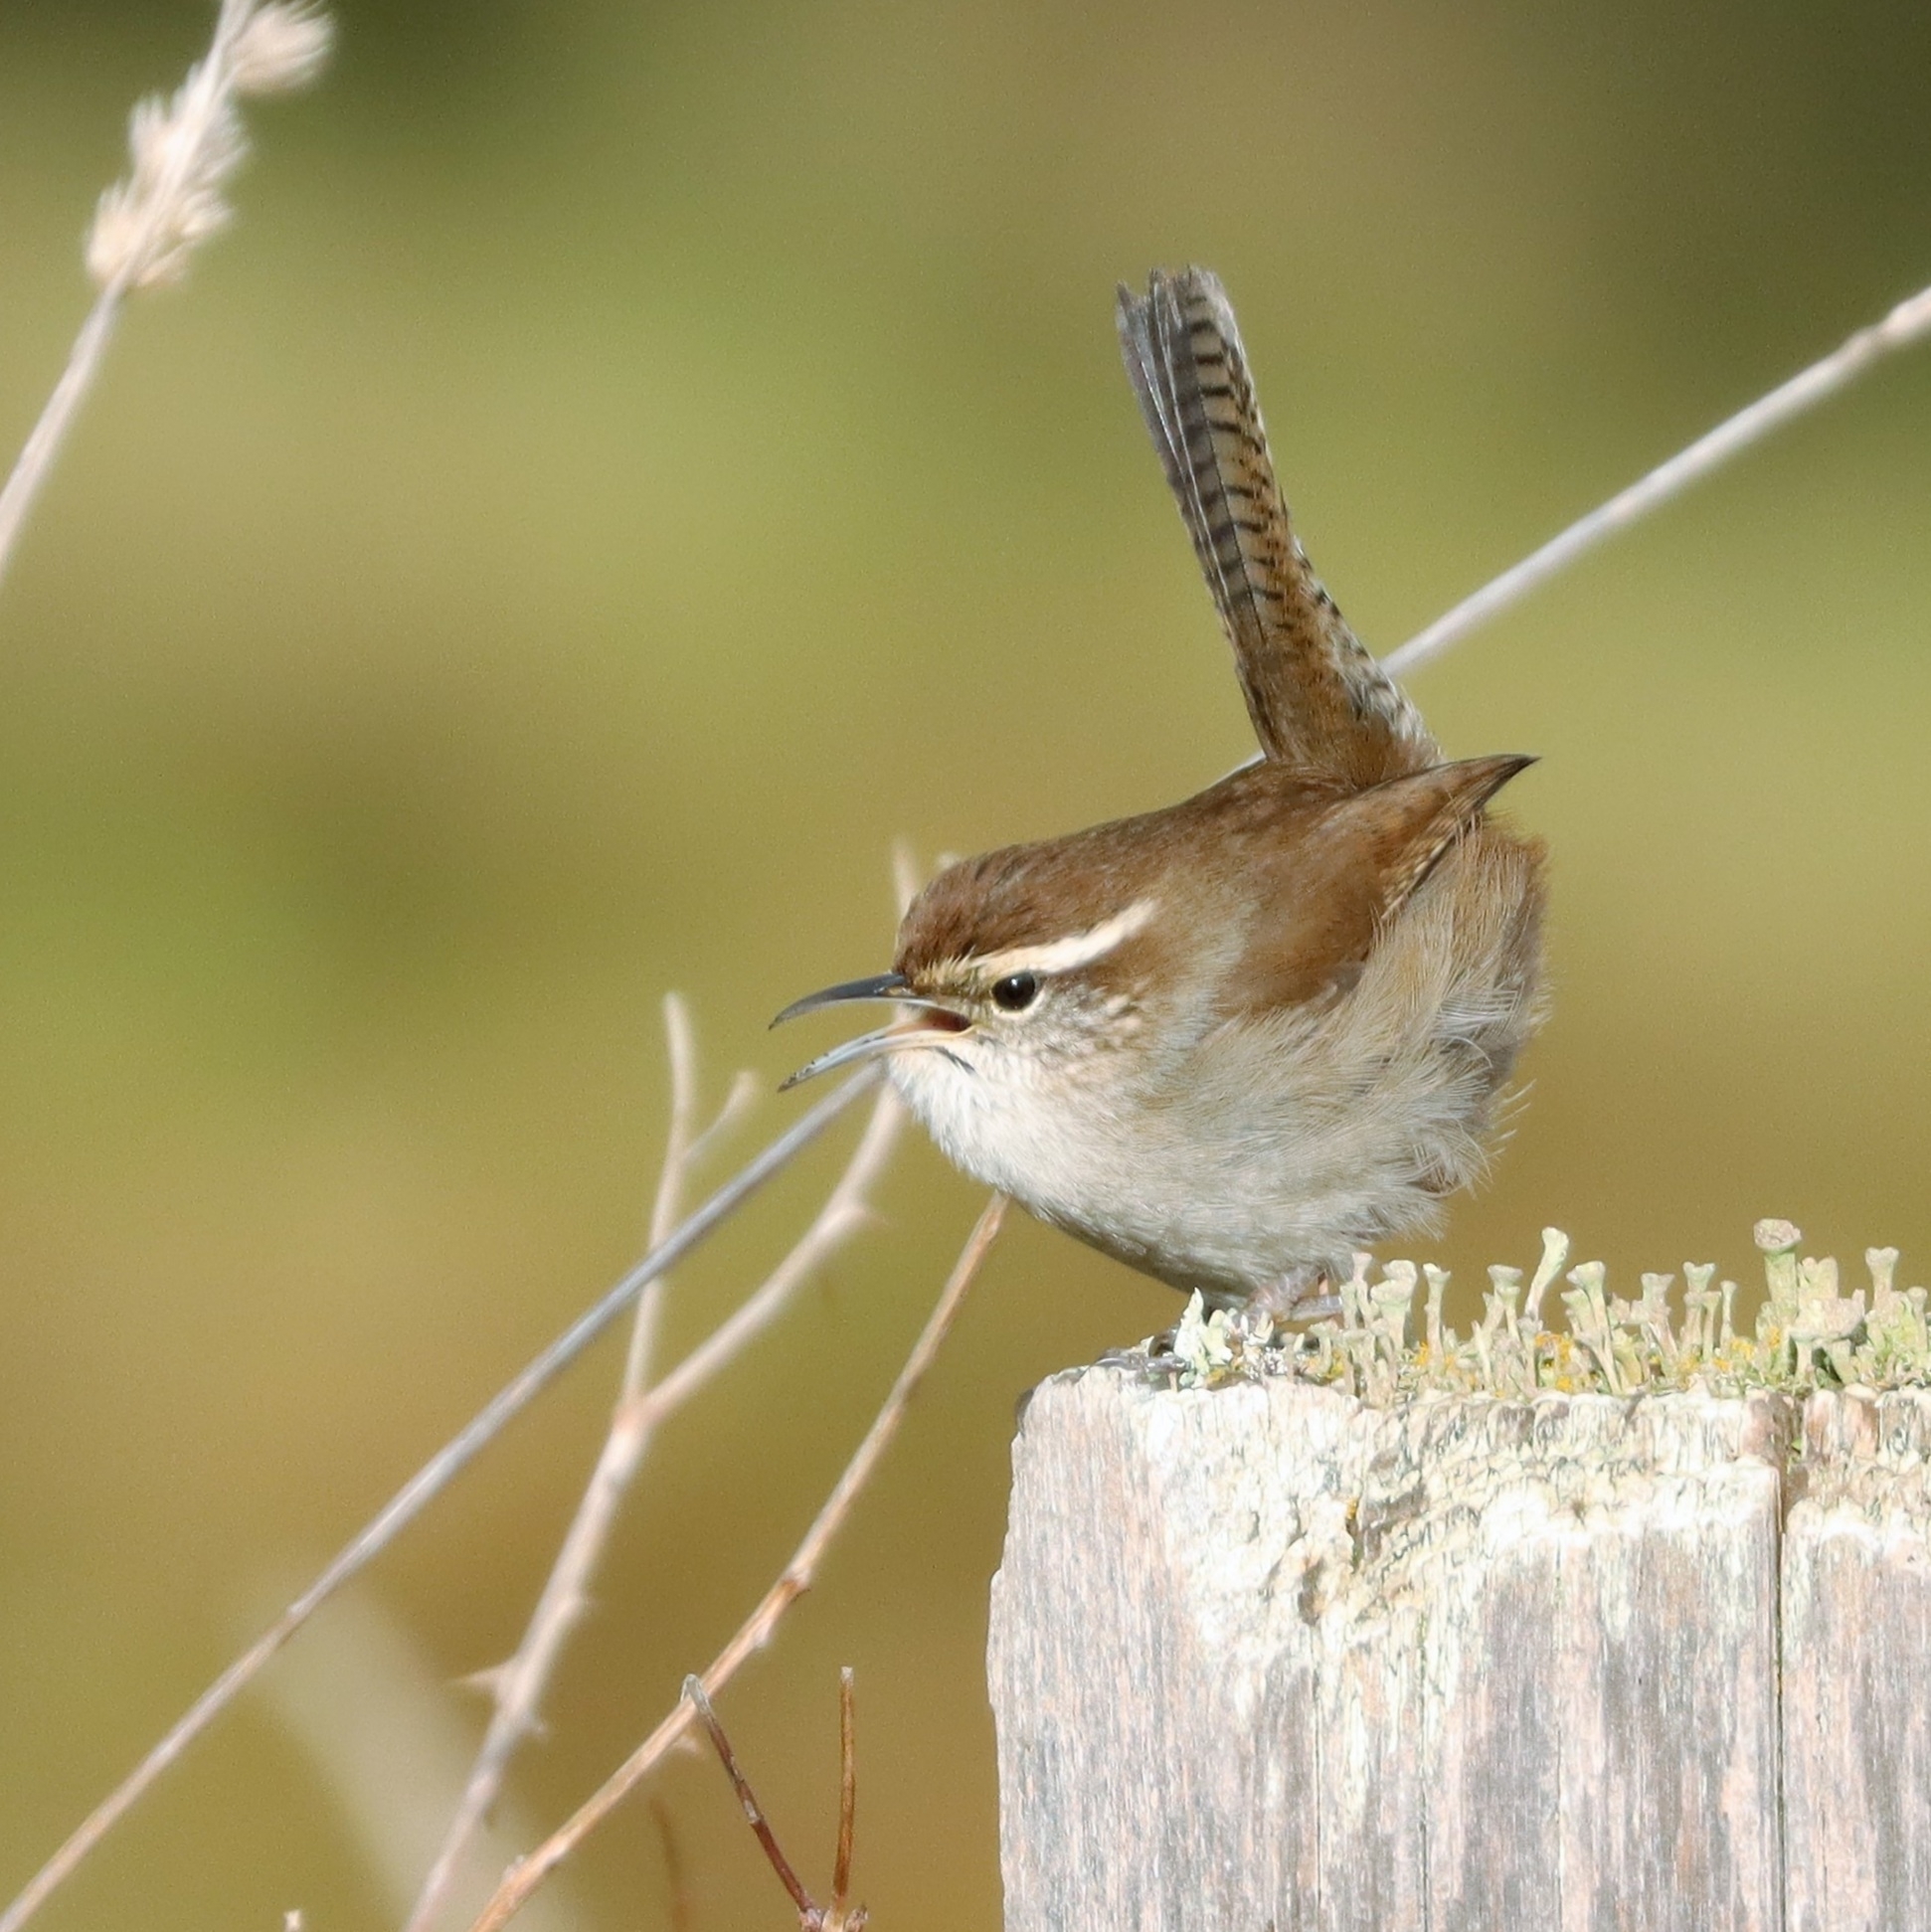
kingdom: Animalia
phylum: Chordata
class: Aves
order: Passeriformes
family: Troglodytidae
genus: Thryomanes
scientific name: Thryomanes bewickii
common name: Bewick's wren
